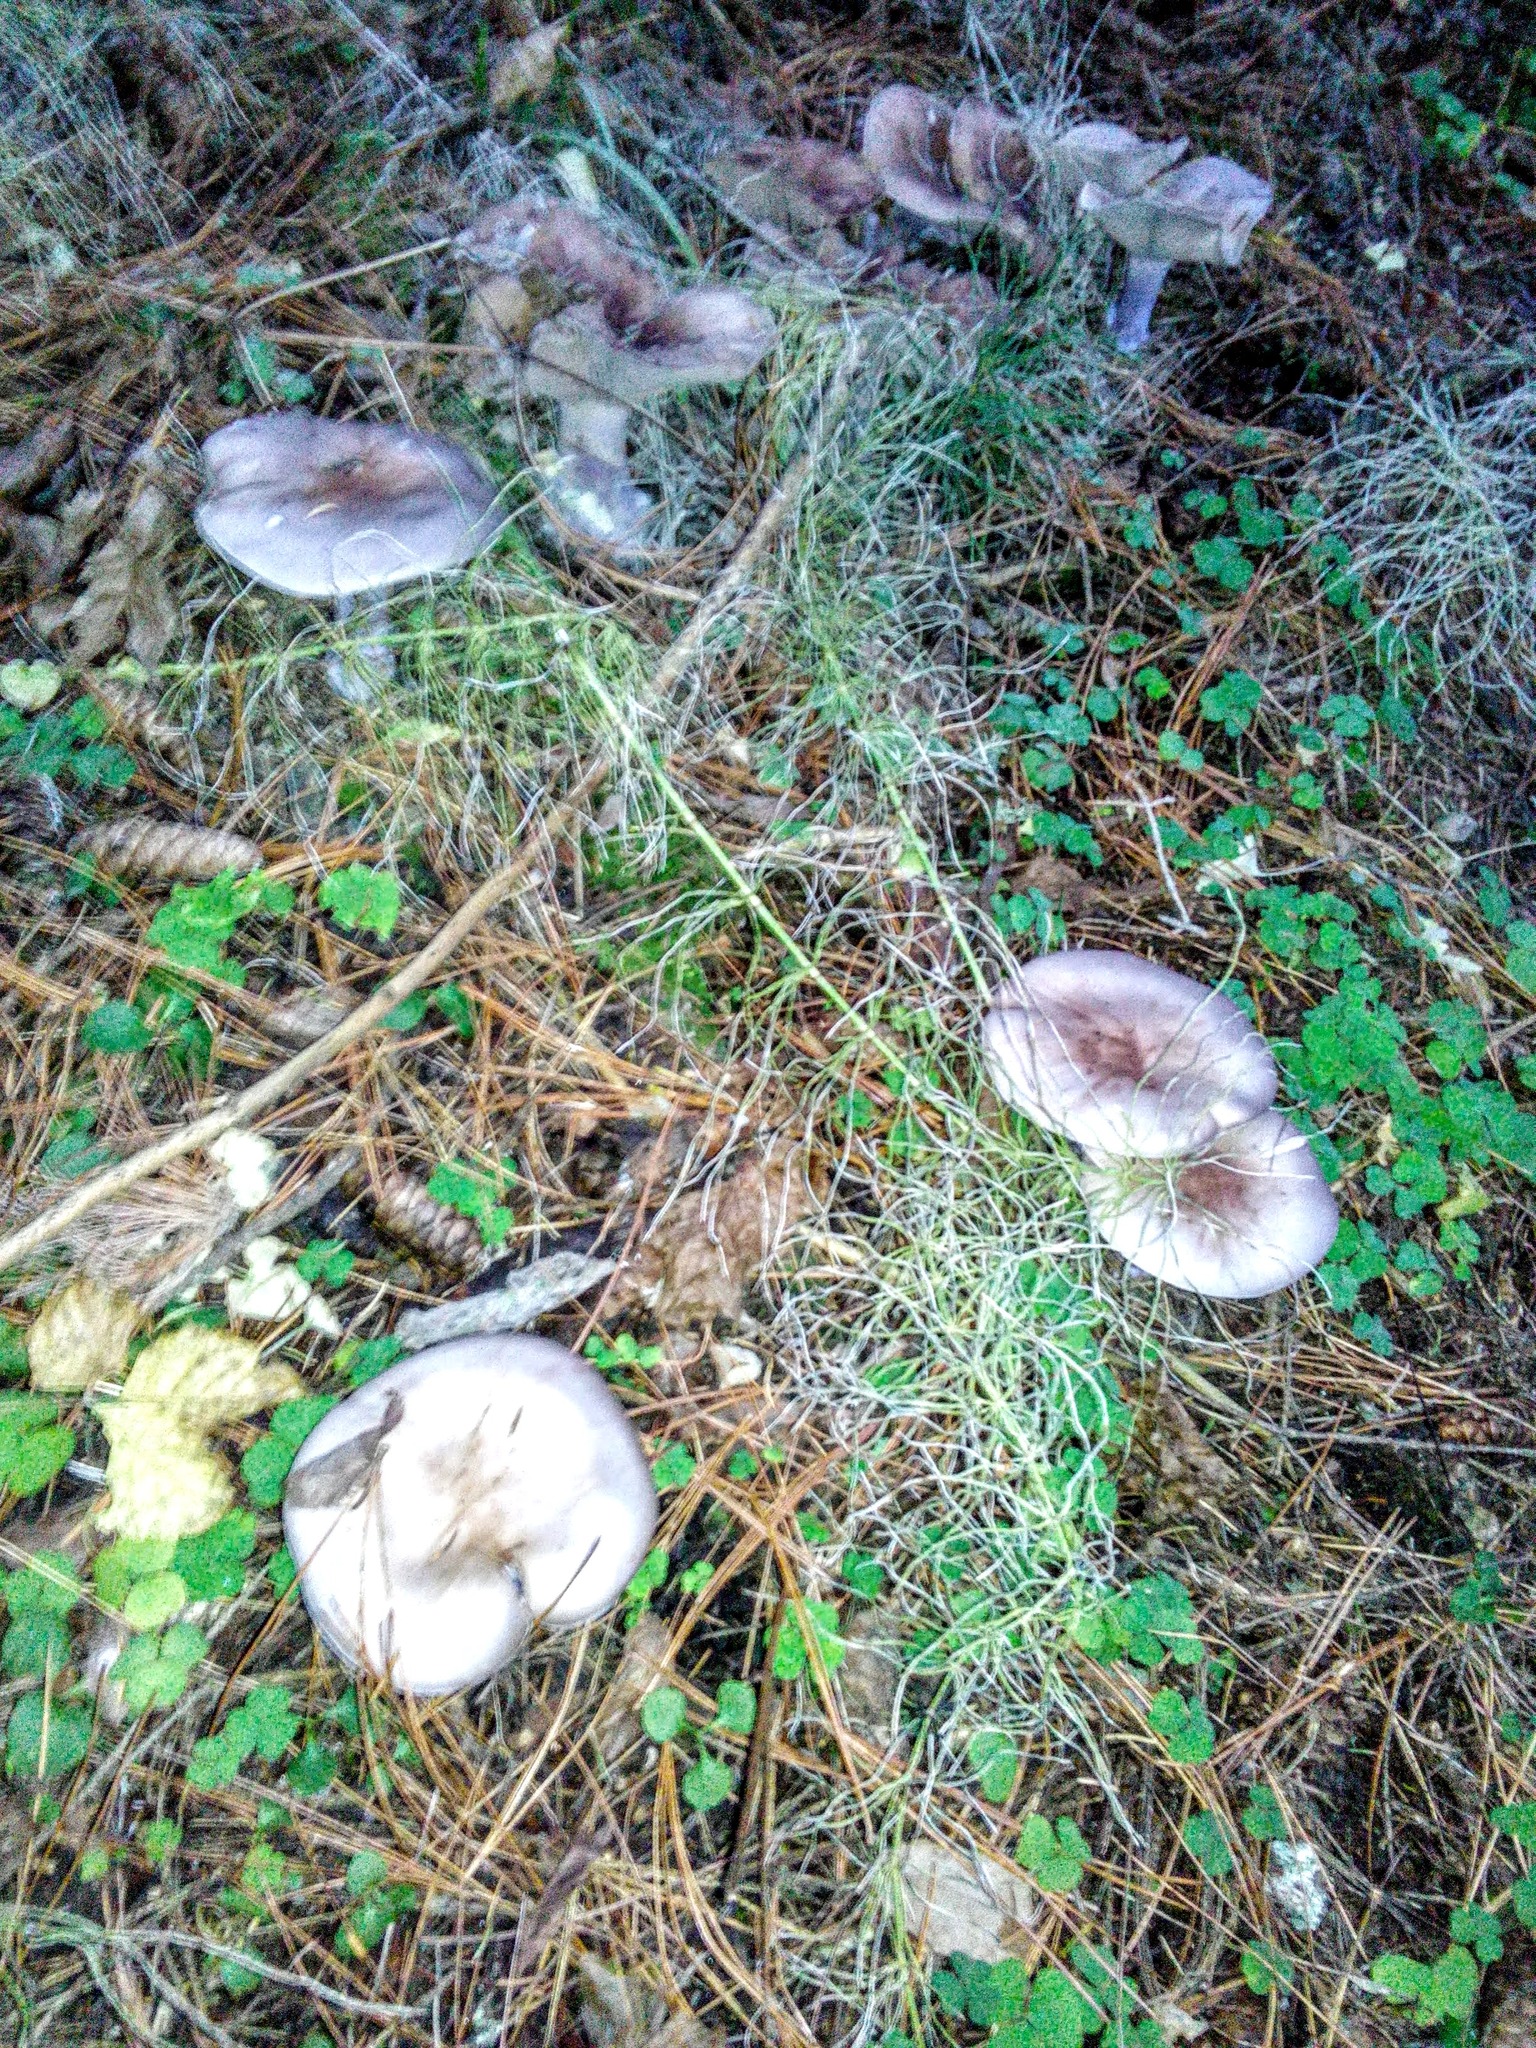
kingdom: Fungi
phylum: Basidiomycota
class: Agaricomycetes
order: Agaricales
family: Omphalotaceae
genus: Collybiopsis
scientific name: Collybiopsis peronata
